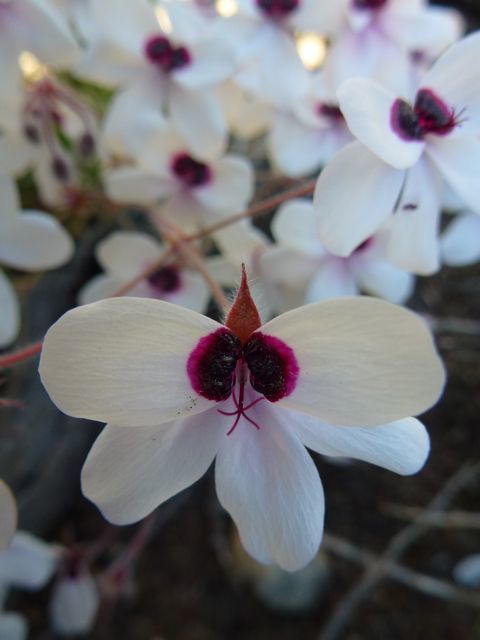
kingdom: Plantae
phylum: Tracheophyta
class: Magnoliopsida
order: Geraniales
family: Geraniaceae
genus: Pelargonium
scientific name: Pelargonium tricolor
